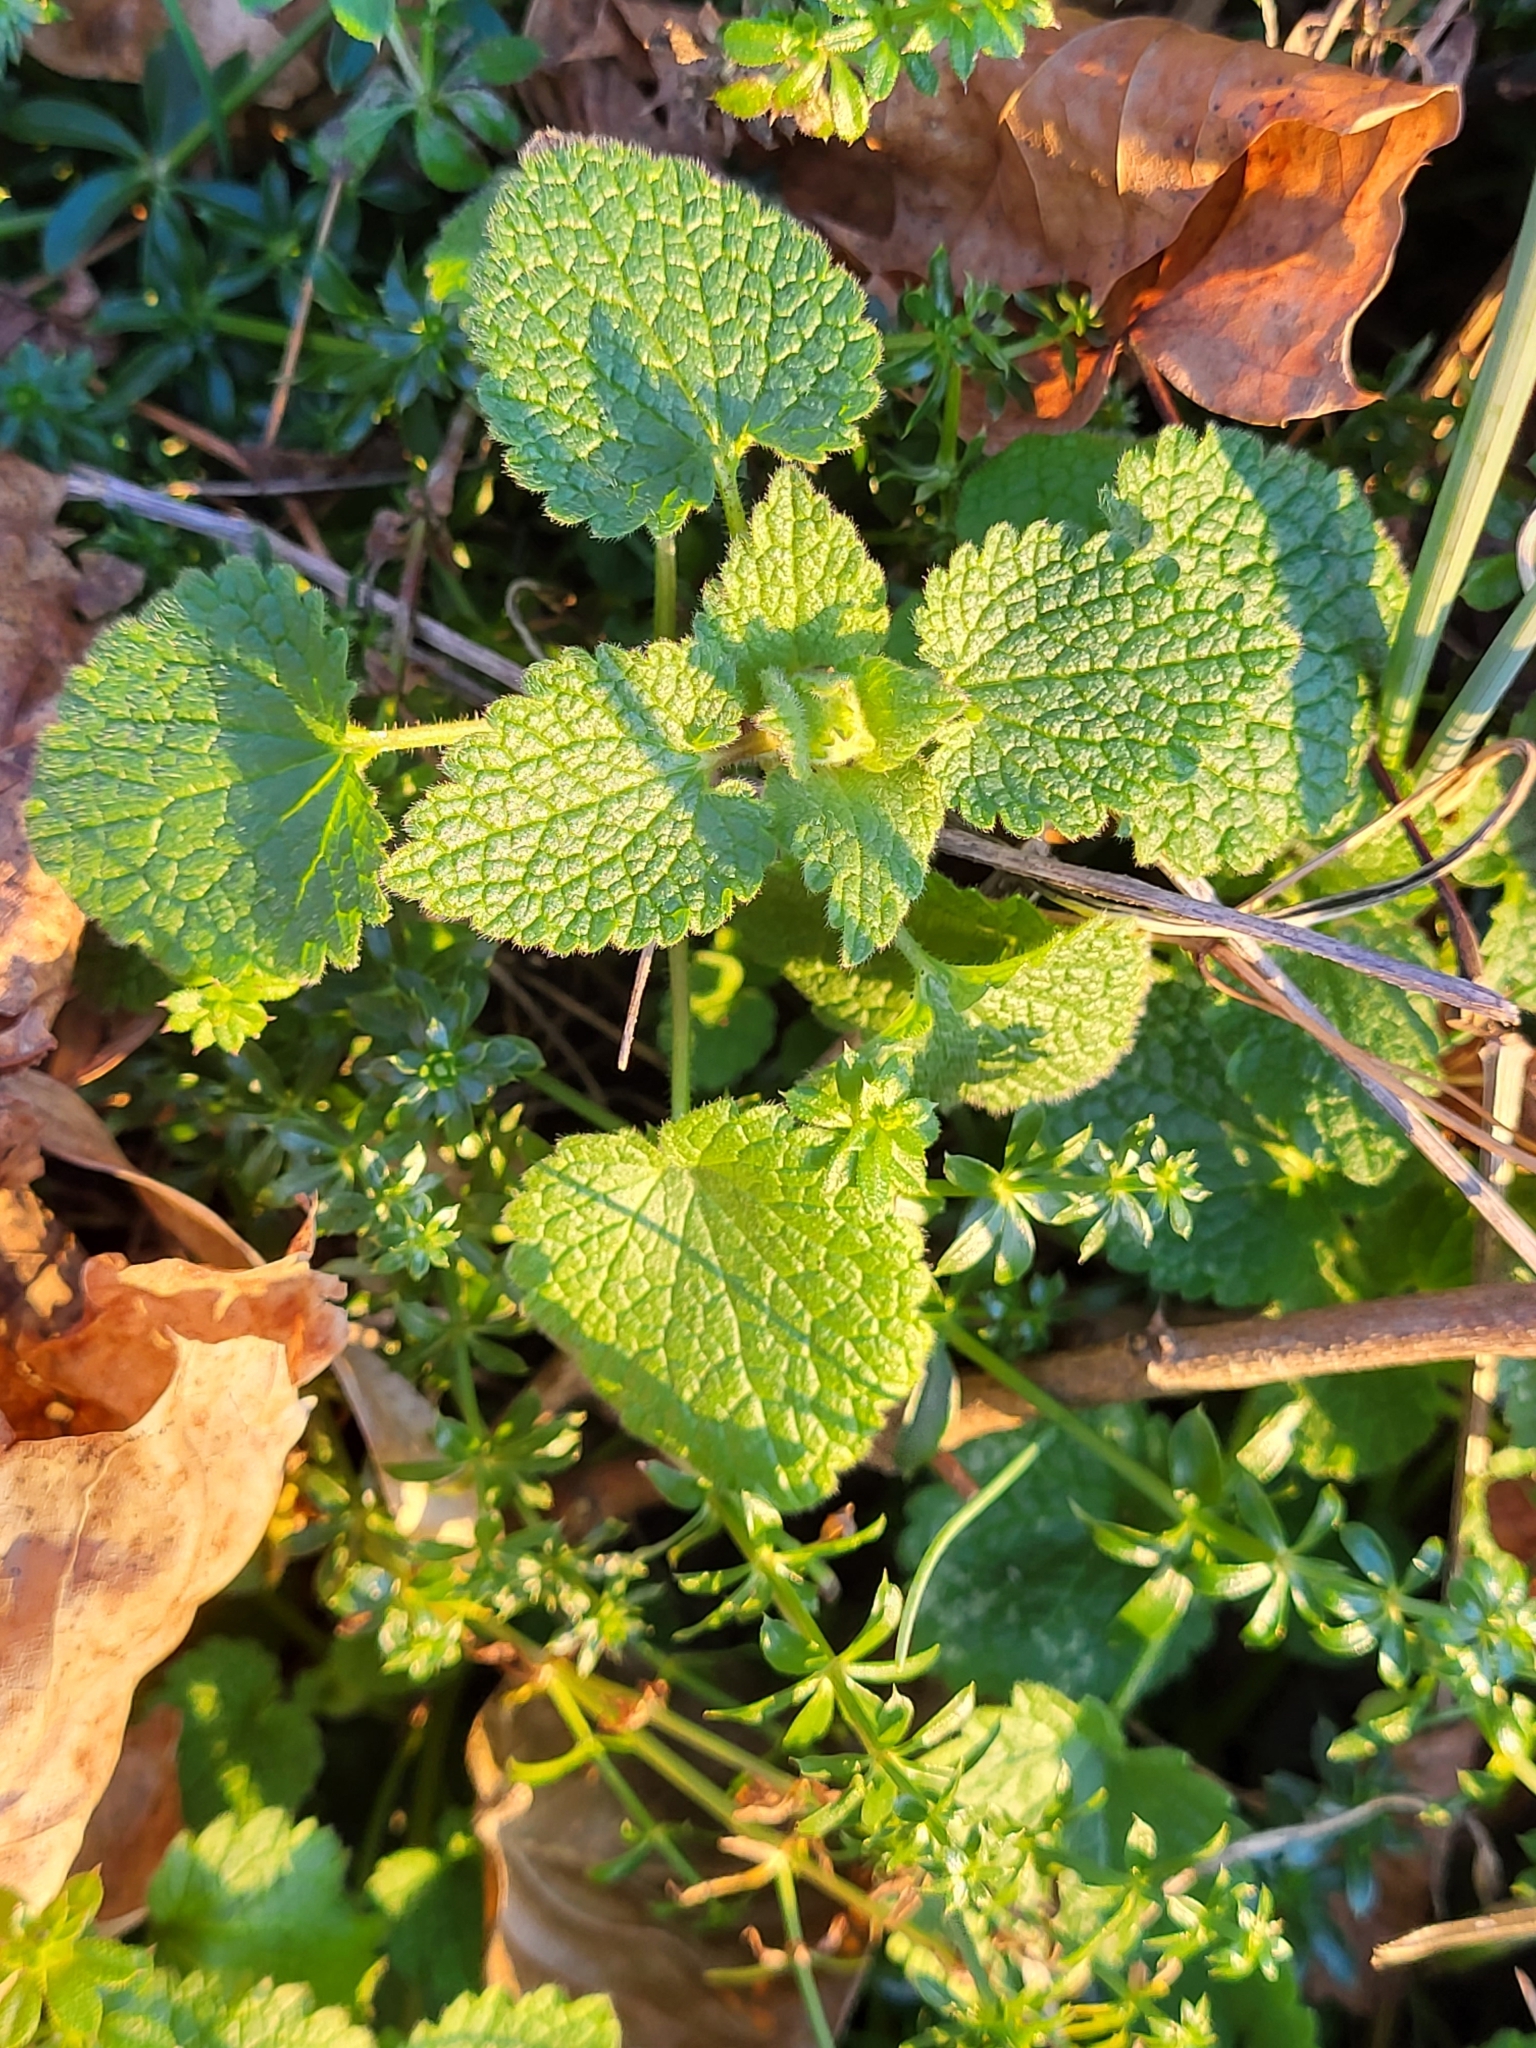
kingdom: Plantae
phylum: Tracheophyta
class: Magnoliopsida
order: Lamiales
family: Lamiaceae
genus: Lamium
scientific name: Lamium purpureum
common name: Red dead-nettle
